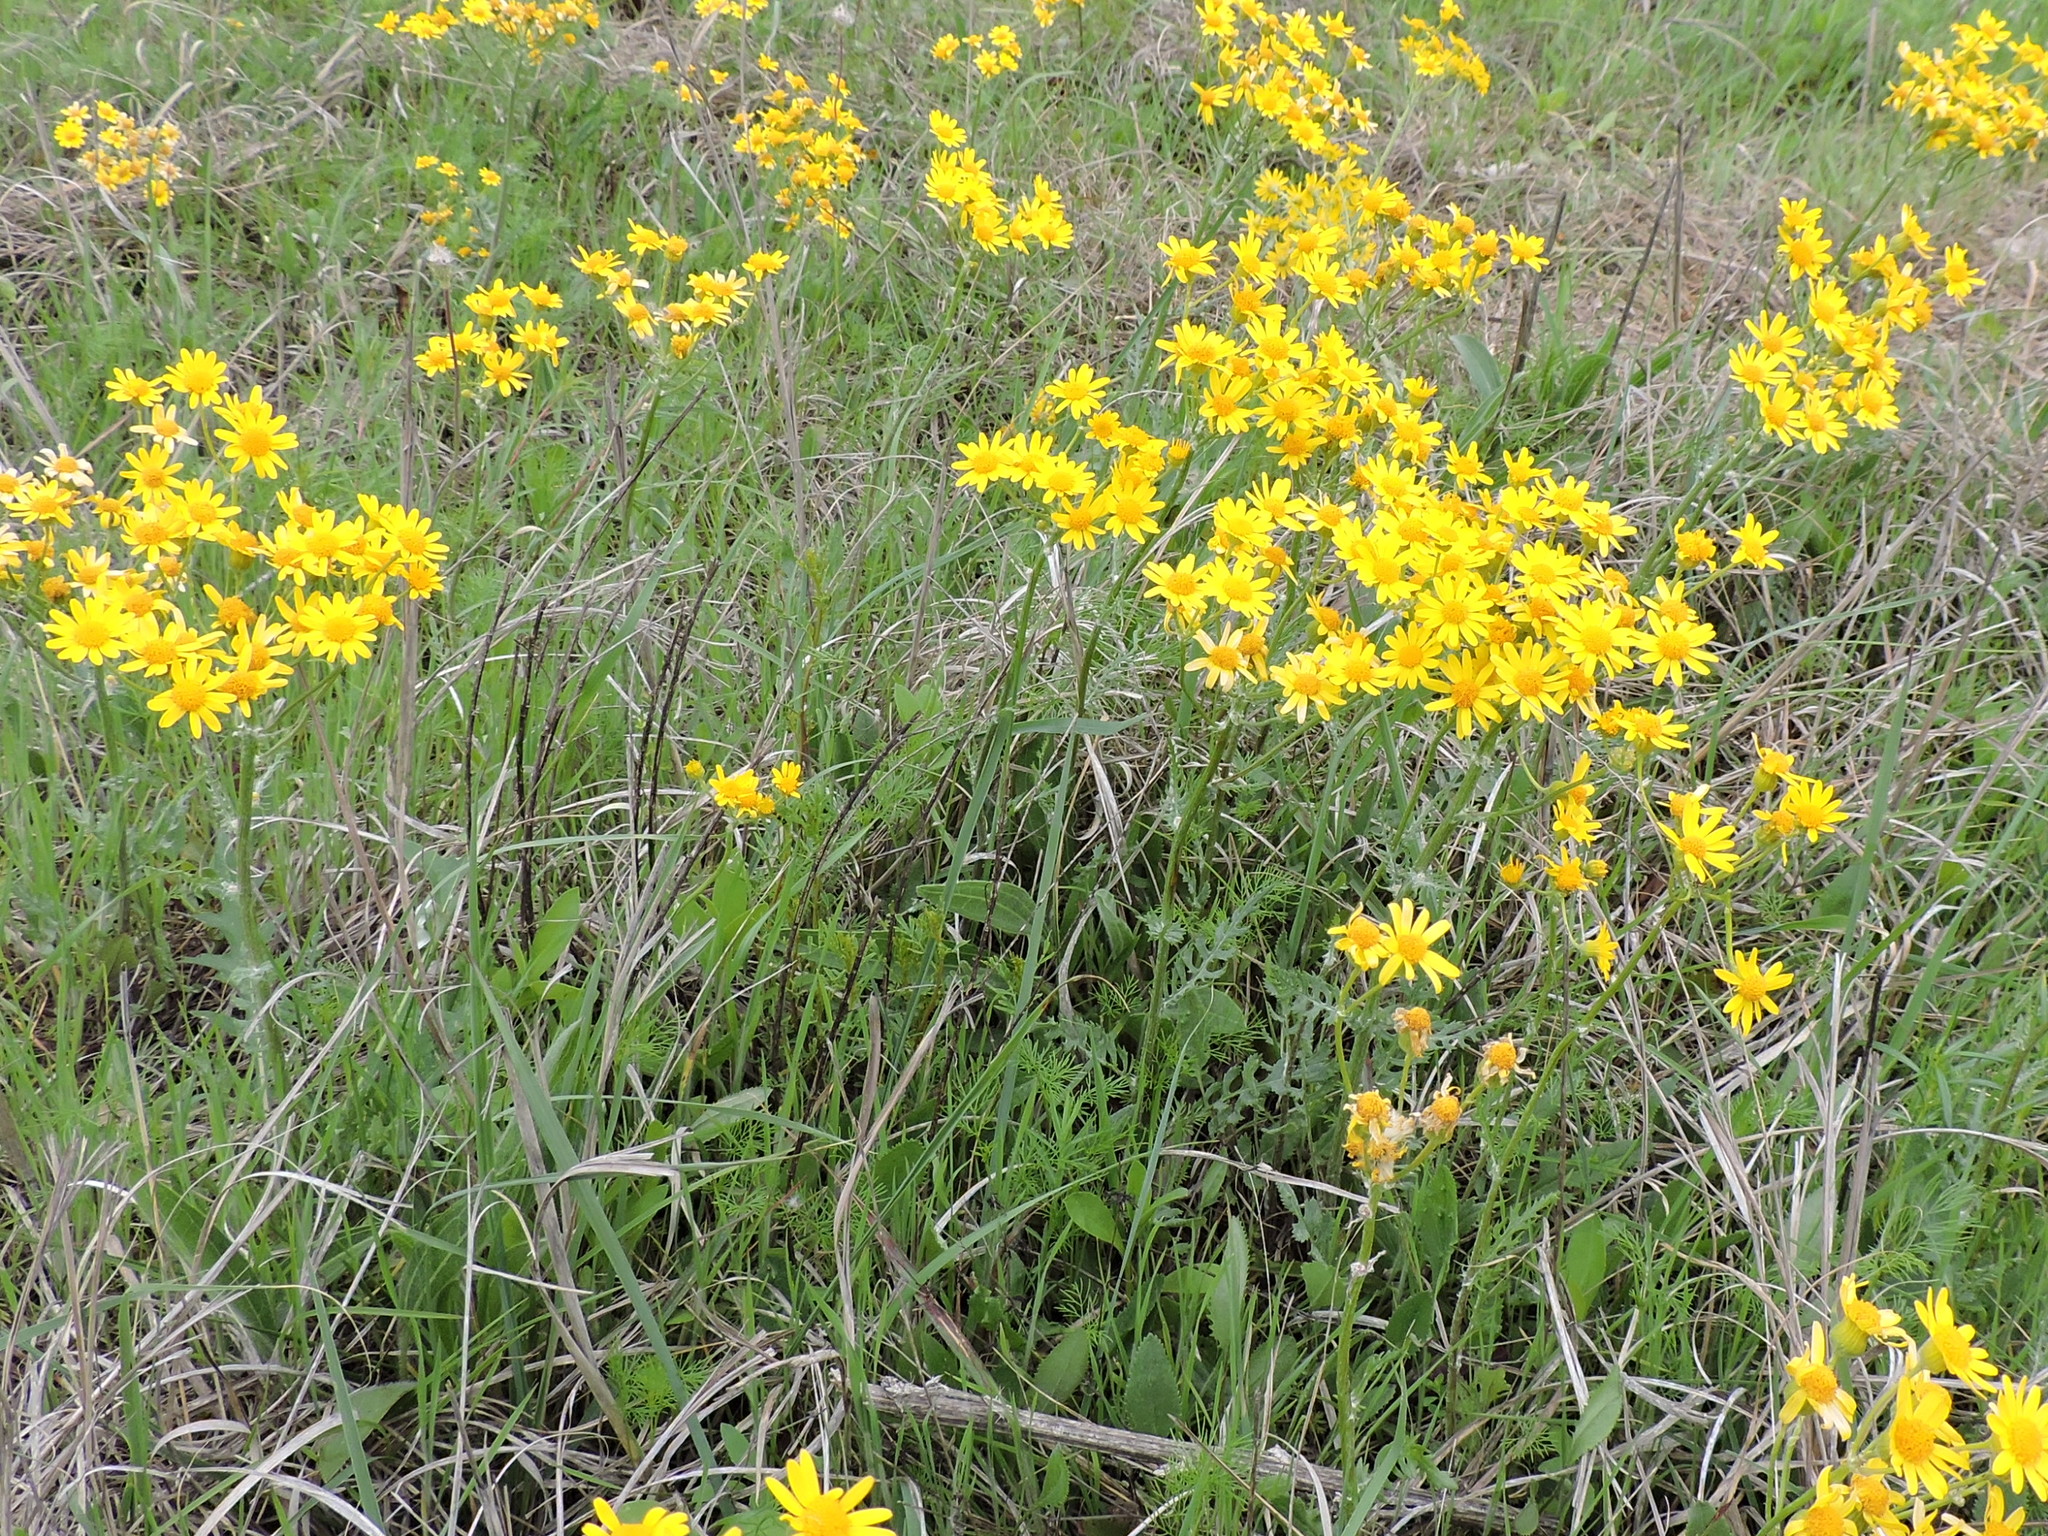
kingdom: Plantae
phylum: Tracheophyta
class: Magnoliopsida
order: Asterales
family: Asteraceae
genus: Packera
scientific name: Packera tampicana
